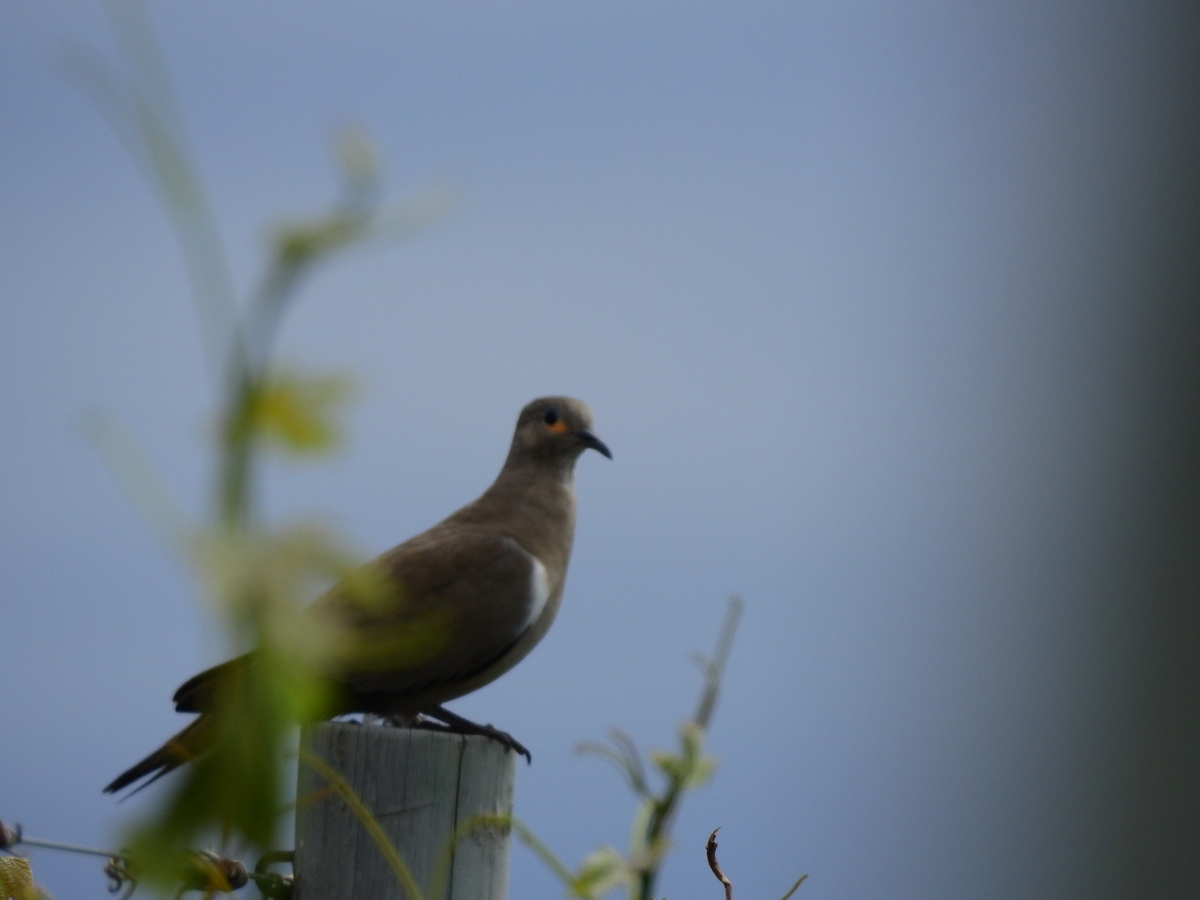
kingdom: Animalia
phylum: Chordata
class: Aves
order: Columbiformes
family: Columbidae
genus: Metriopelia
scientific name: Metriopelia melanoptera
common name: Black-winged ground dove
